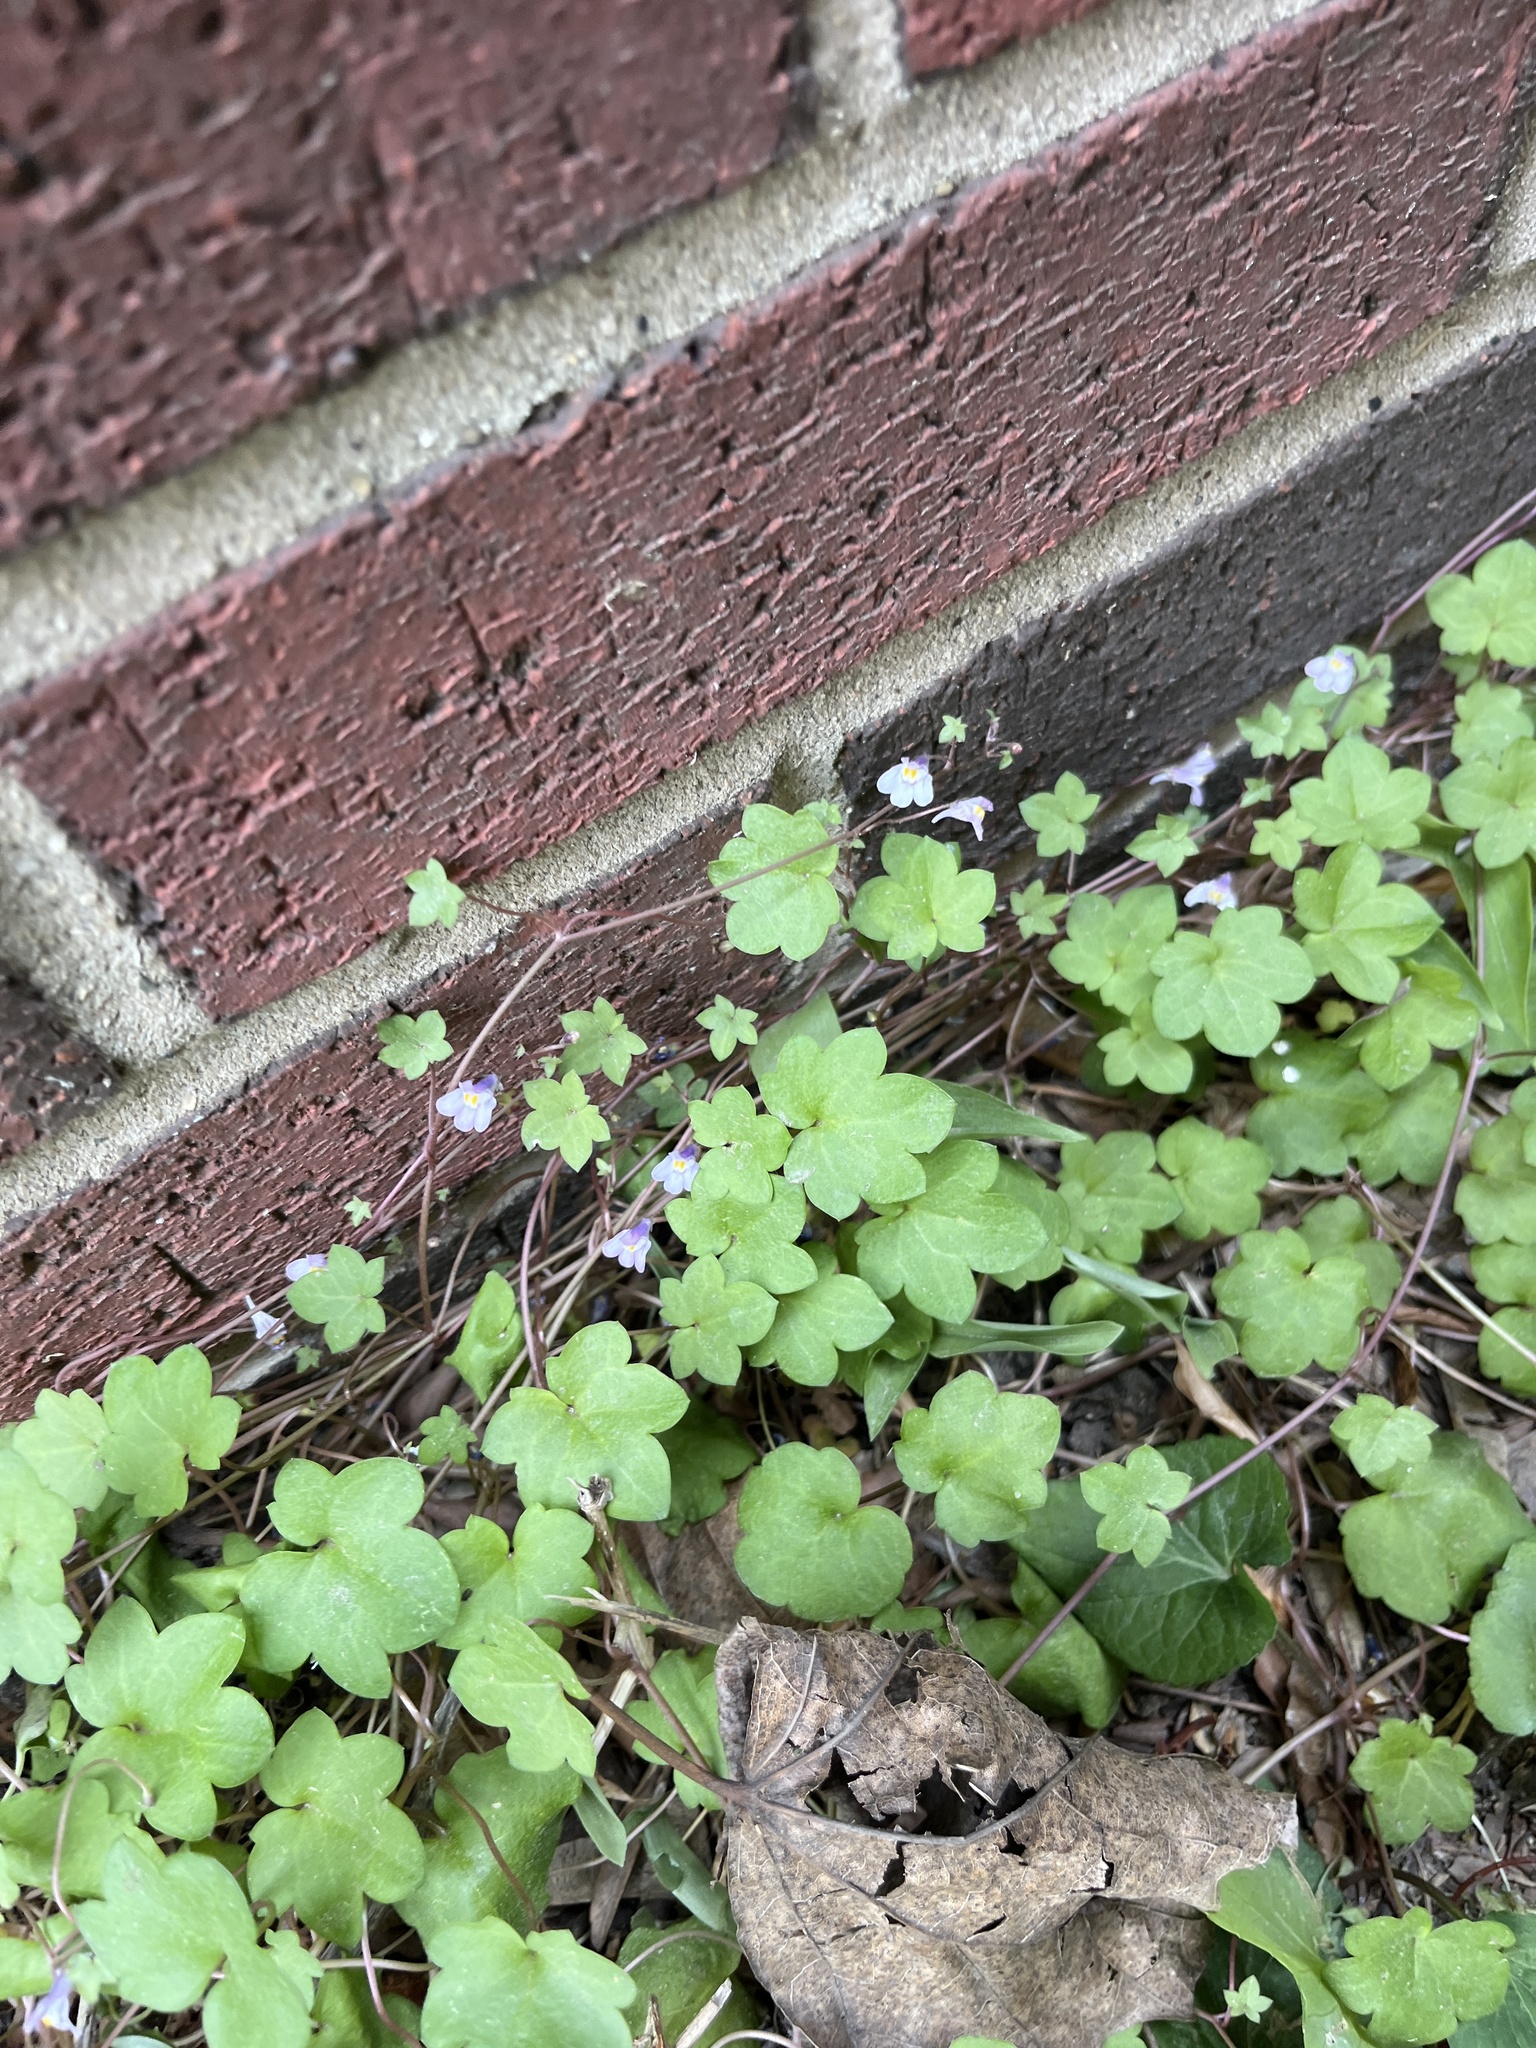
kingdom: Plantae
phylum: Tracheophyta
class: Magnoliopsida
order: Lamiales
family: Plantaginaceae
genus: Cymbalaria
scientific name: Cymbalaria muralis
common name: Ivy-leaved toadflax
